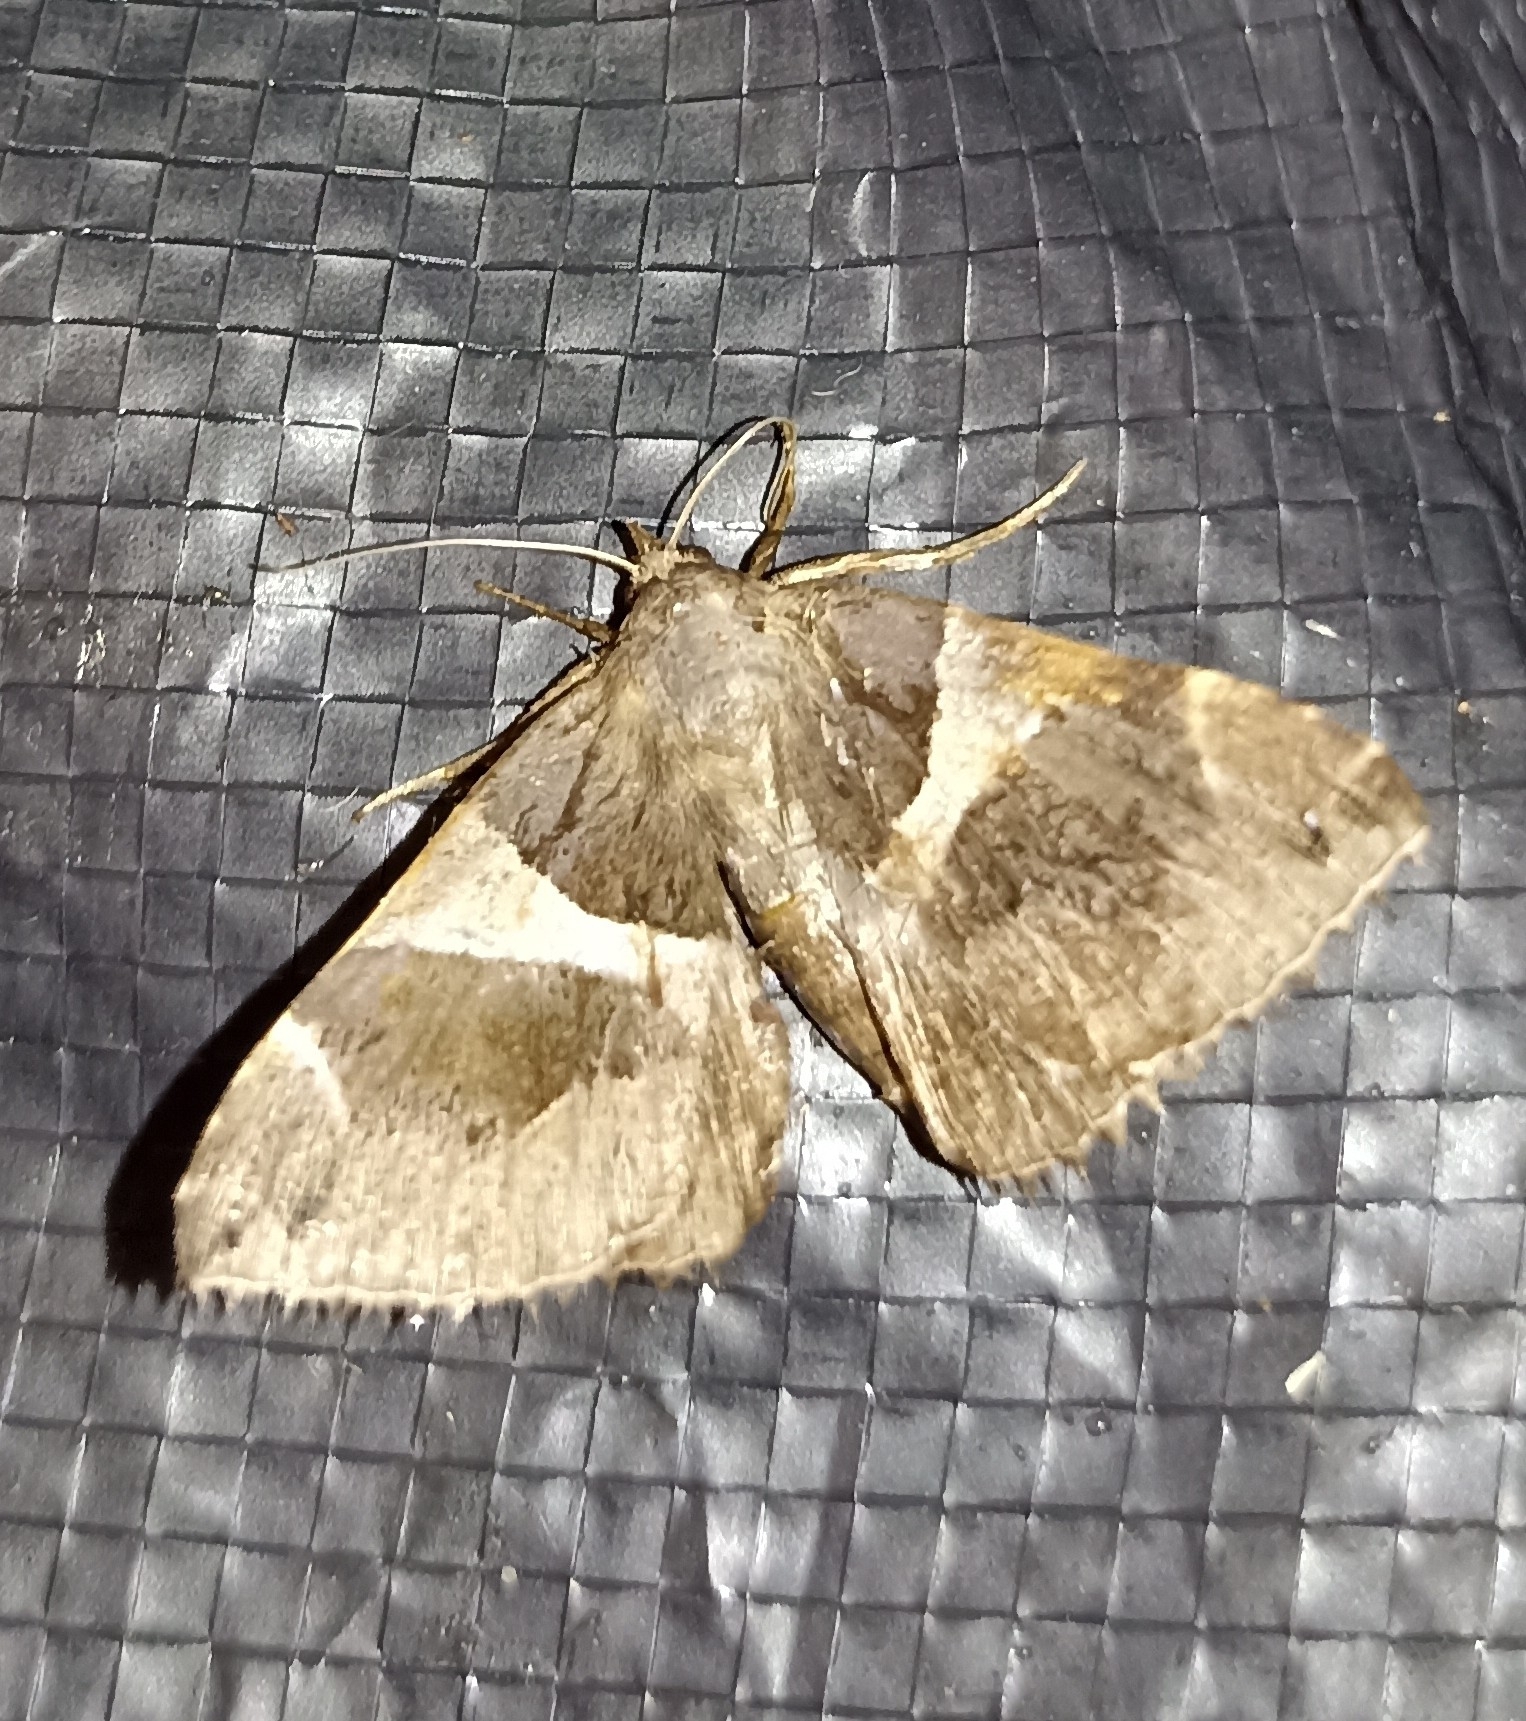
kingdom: Animalia
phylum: Arthropoda
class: Insecta
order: Lepidoptera
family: Erebidae
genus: Dysgonia
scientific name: Dysgonia algira
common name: Passenger
